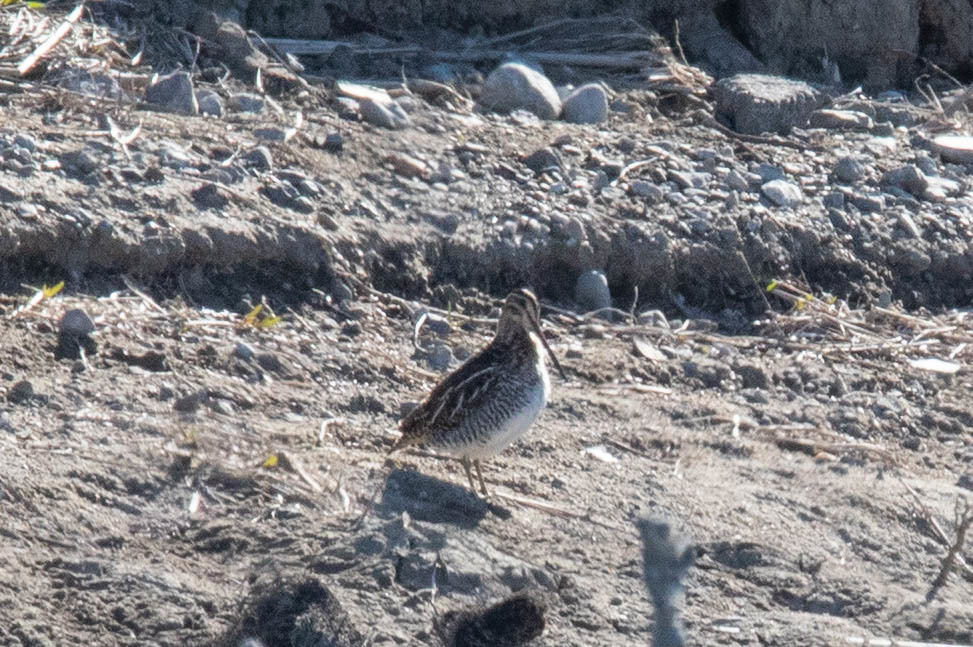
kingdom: Animalia
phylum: Chordata
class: Aves
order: Charadriiformes
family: Scolopacidae
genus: Gallinago
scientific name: Gallinago delicata
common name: Wilson's snipe
